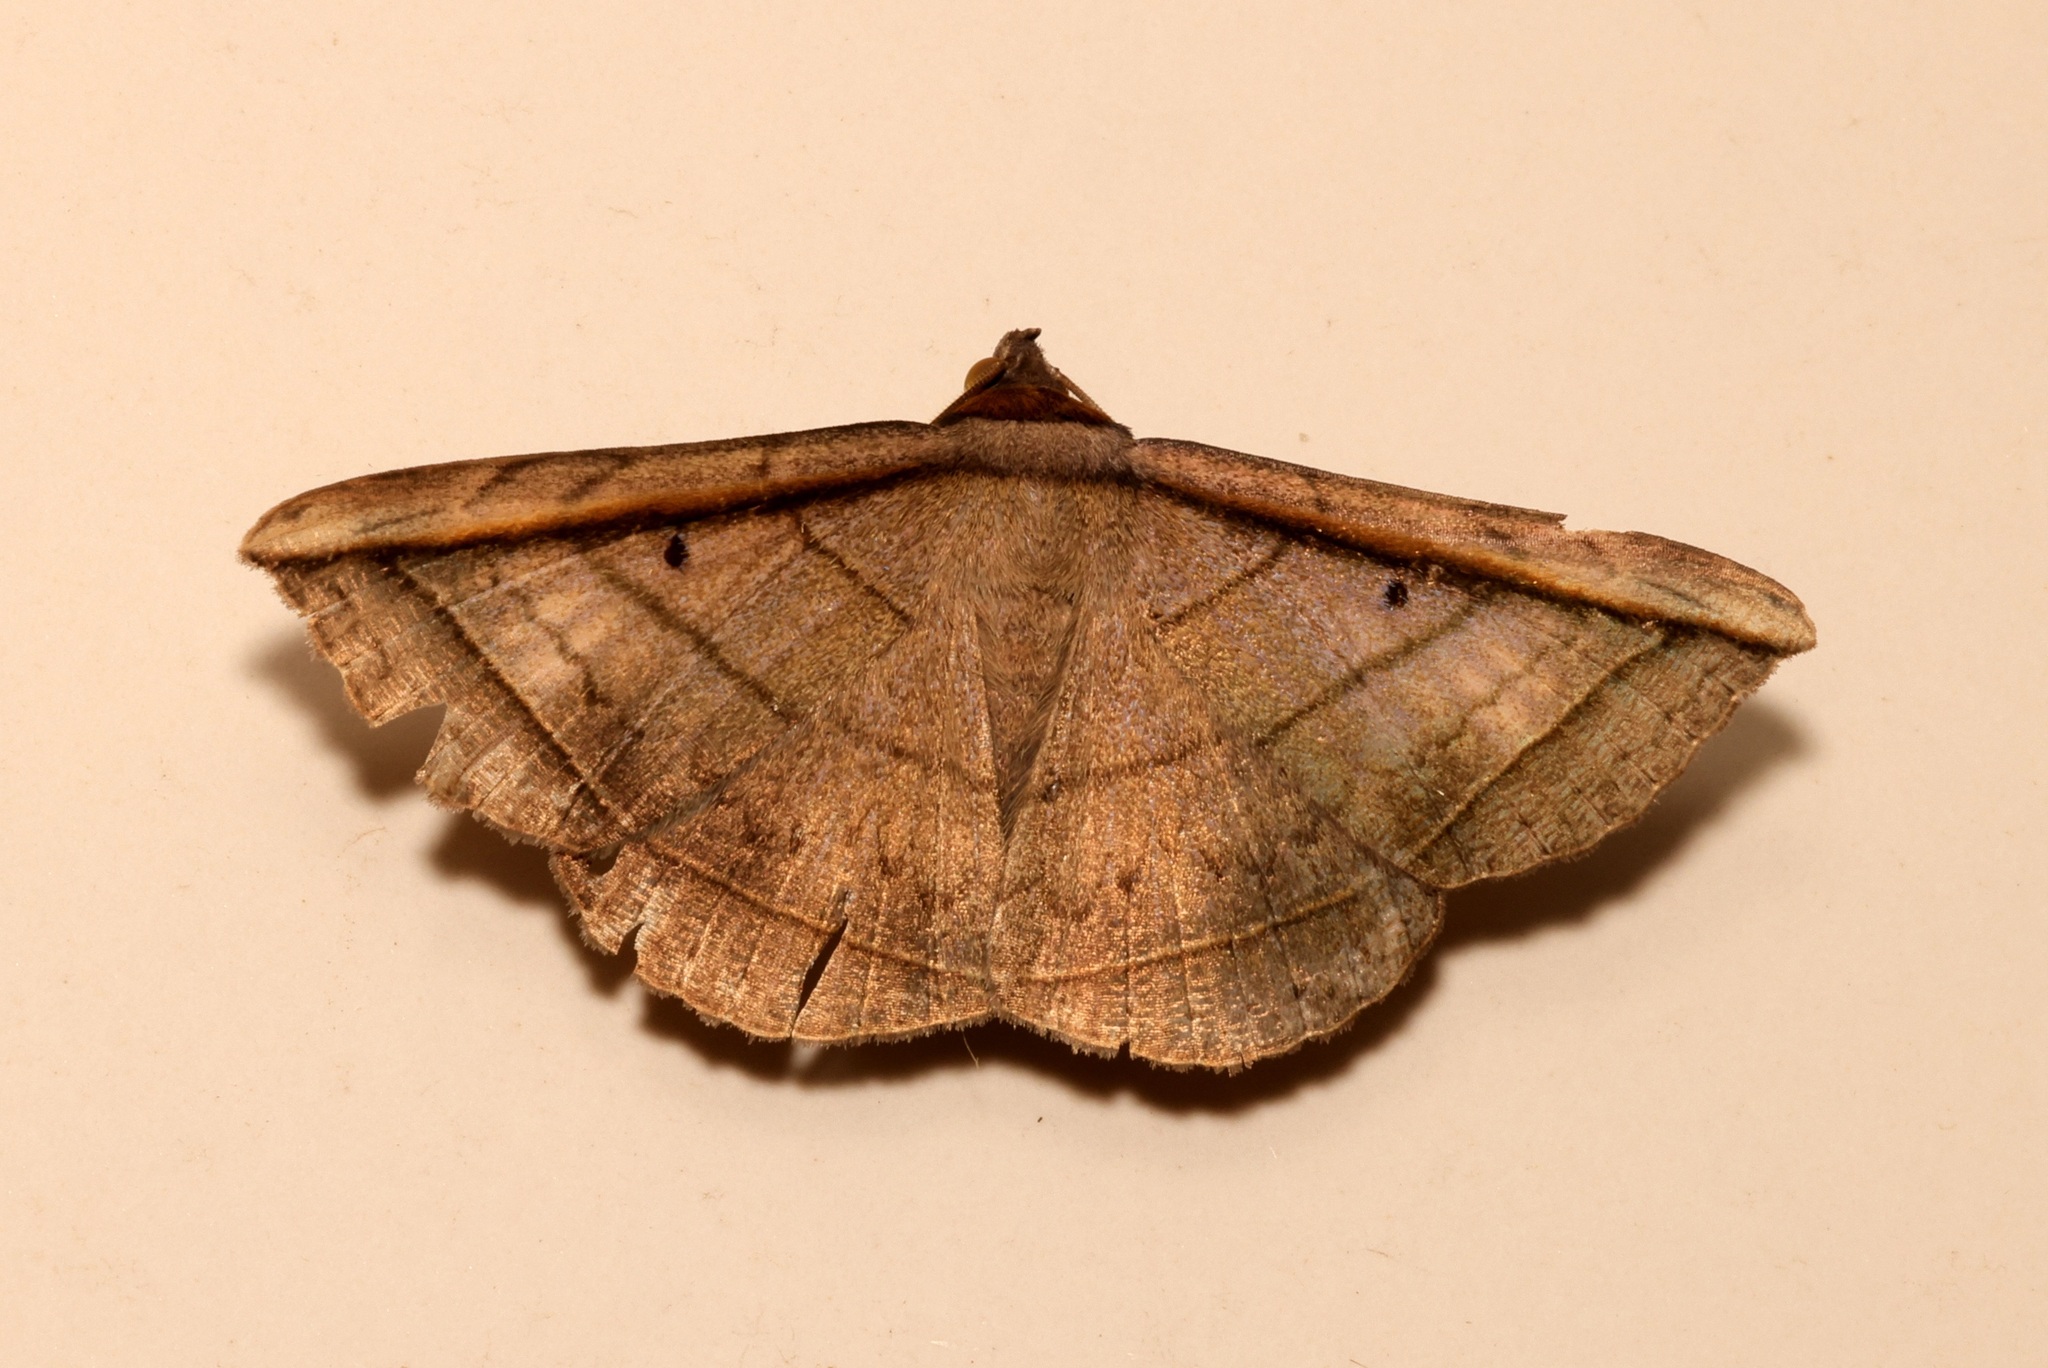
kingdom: Animalia
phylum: Arthropoda
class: Insecta
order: Lepidoptera
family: Erebidae
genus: Entomogramma
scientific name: Entomogramma fautrix
